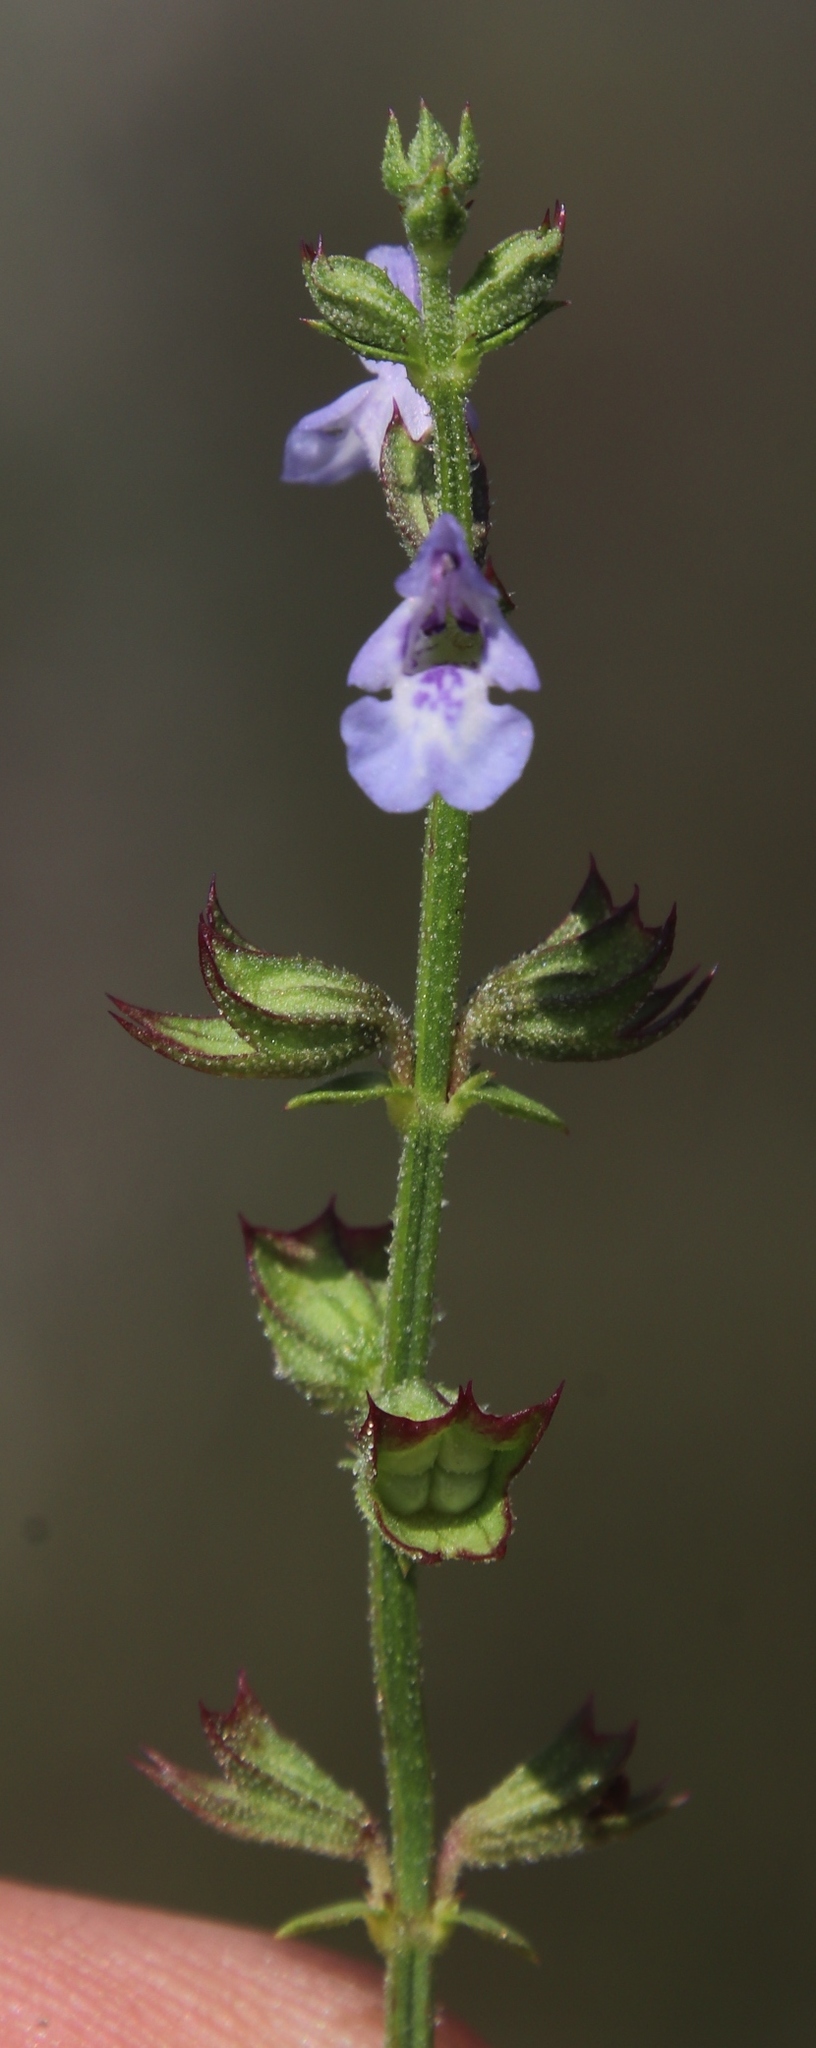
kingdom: Plantae
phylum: Tracheophyta
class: Magnoliopsida
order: Lamiales
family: Lamiaceae
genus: Salvia
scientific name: Salvia stenophylla
